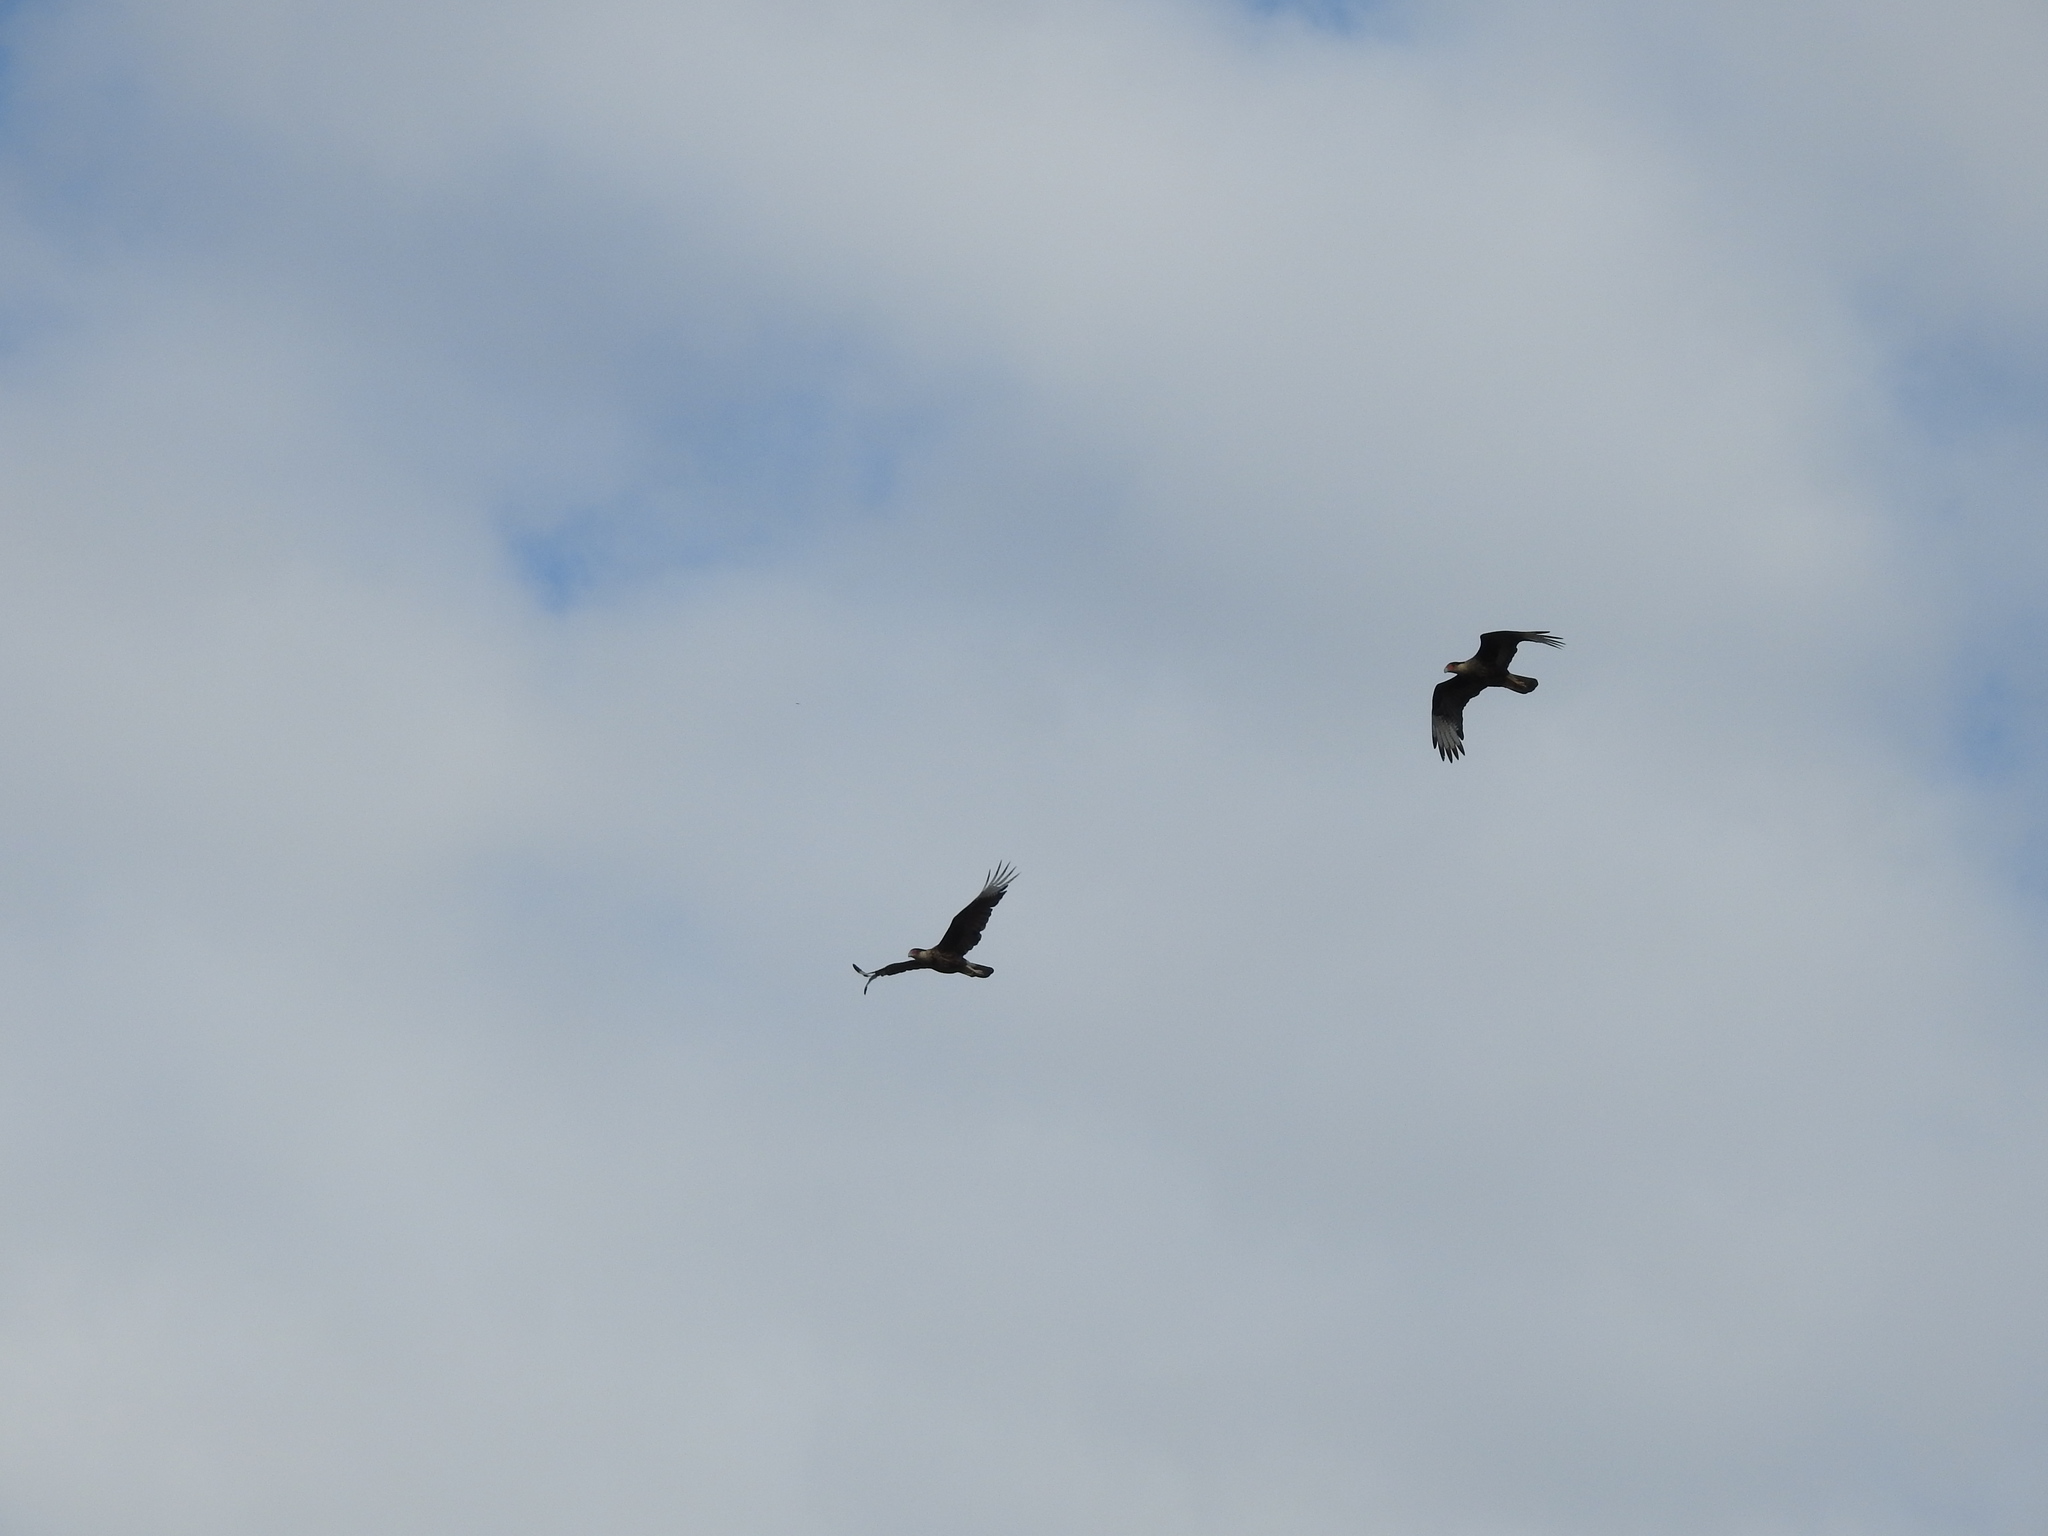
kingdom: Animalia
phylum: Chordata
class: Aves
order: Falconiformes
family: Falconidae
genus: Caracara
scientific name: Caracara plancus
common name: Southern caracara
